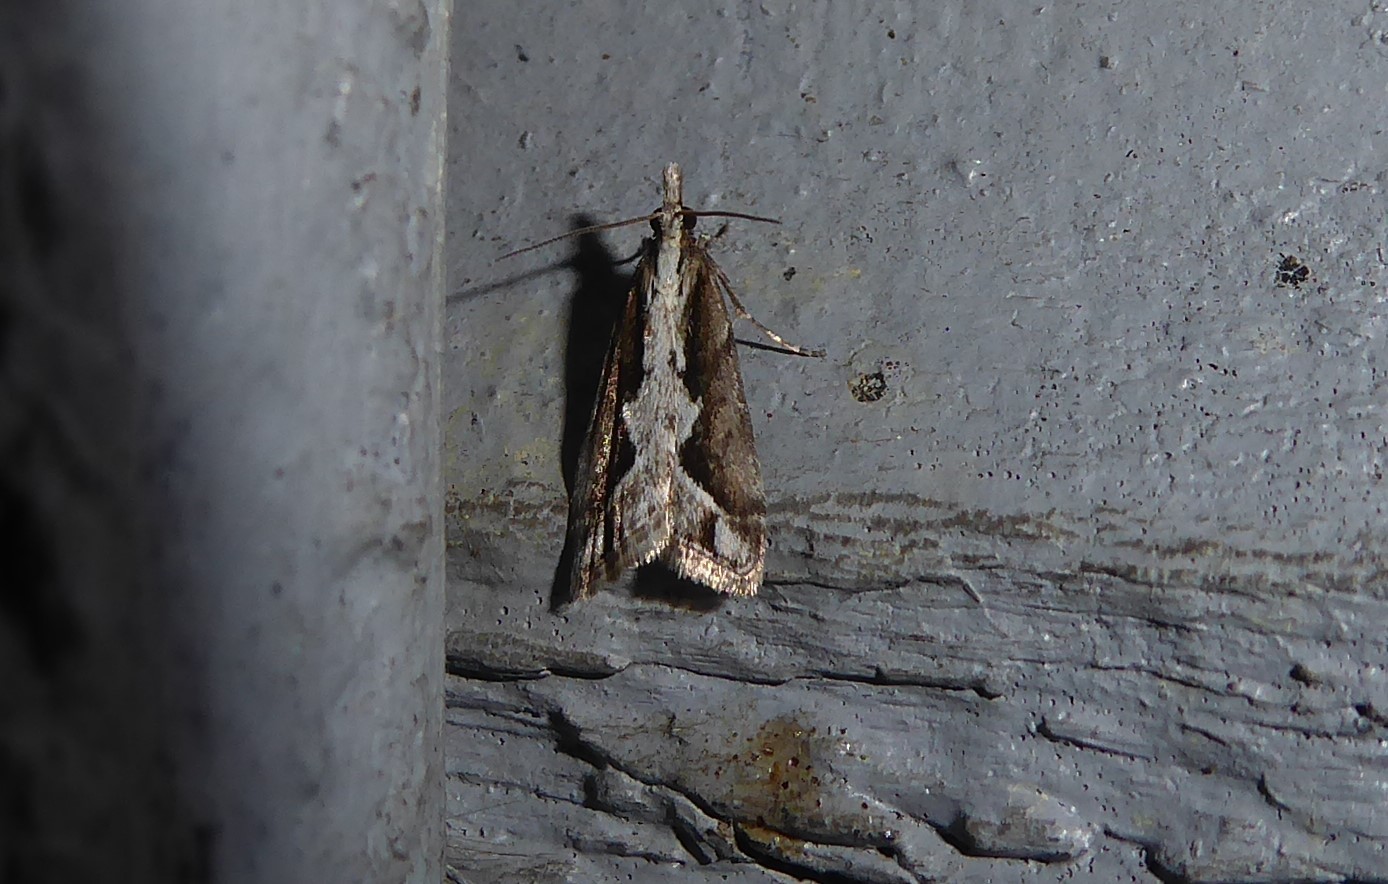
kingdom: Animalia
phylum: Arthropoda
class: Insecta
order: Lepidoptera
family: Crambidae
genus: Eudonia
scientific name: Eudonia steropaea
